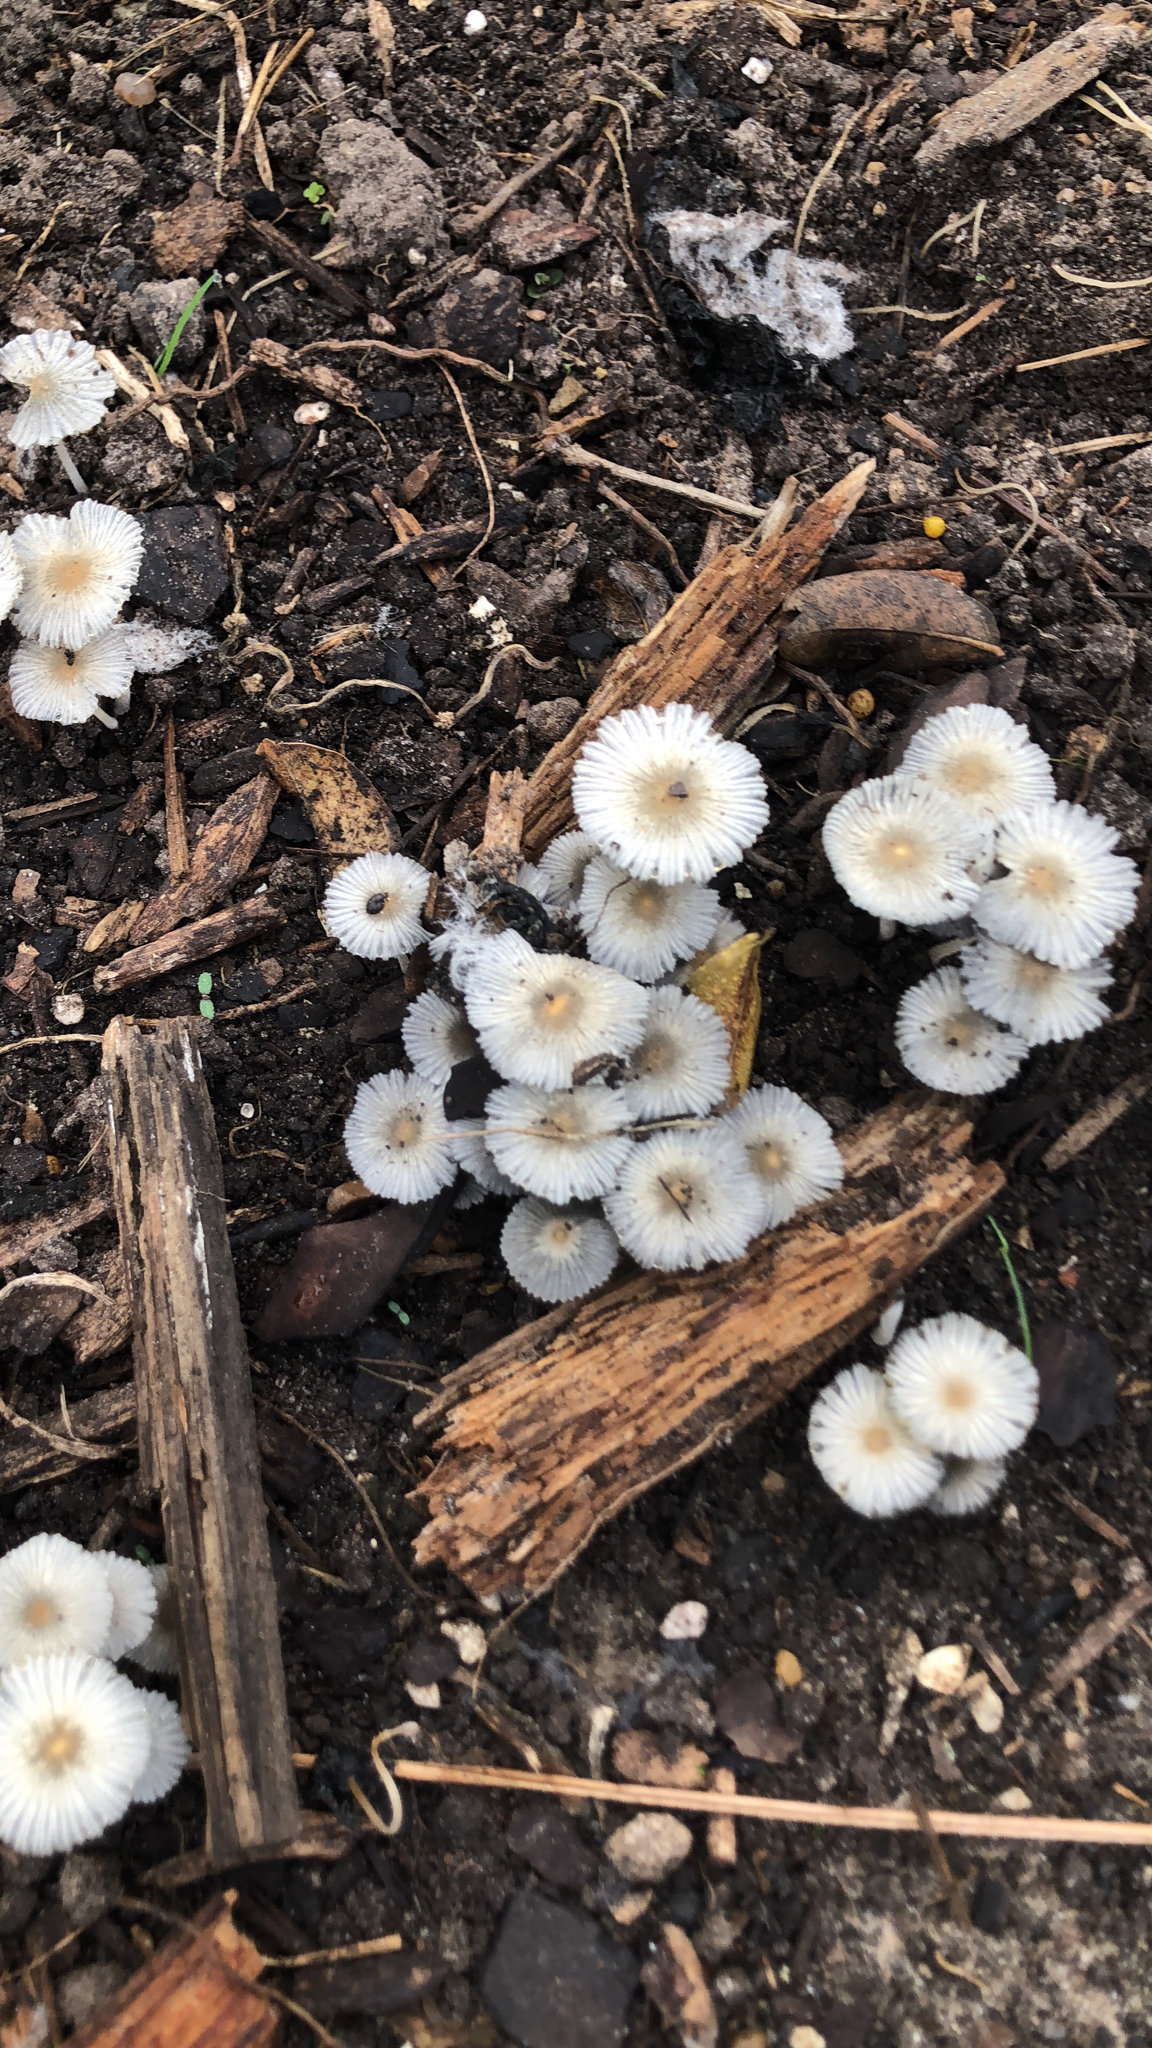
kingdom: Fungi
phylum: Basidiomycota
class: Agaricomycetes
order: Agaricales
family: Psathyrellaceae
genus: Parasola
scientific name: Parasola plicatilis
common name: Pleated inkcap
